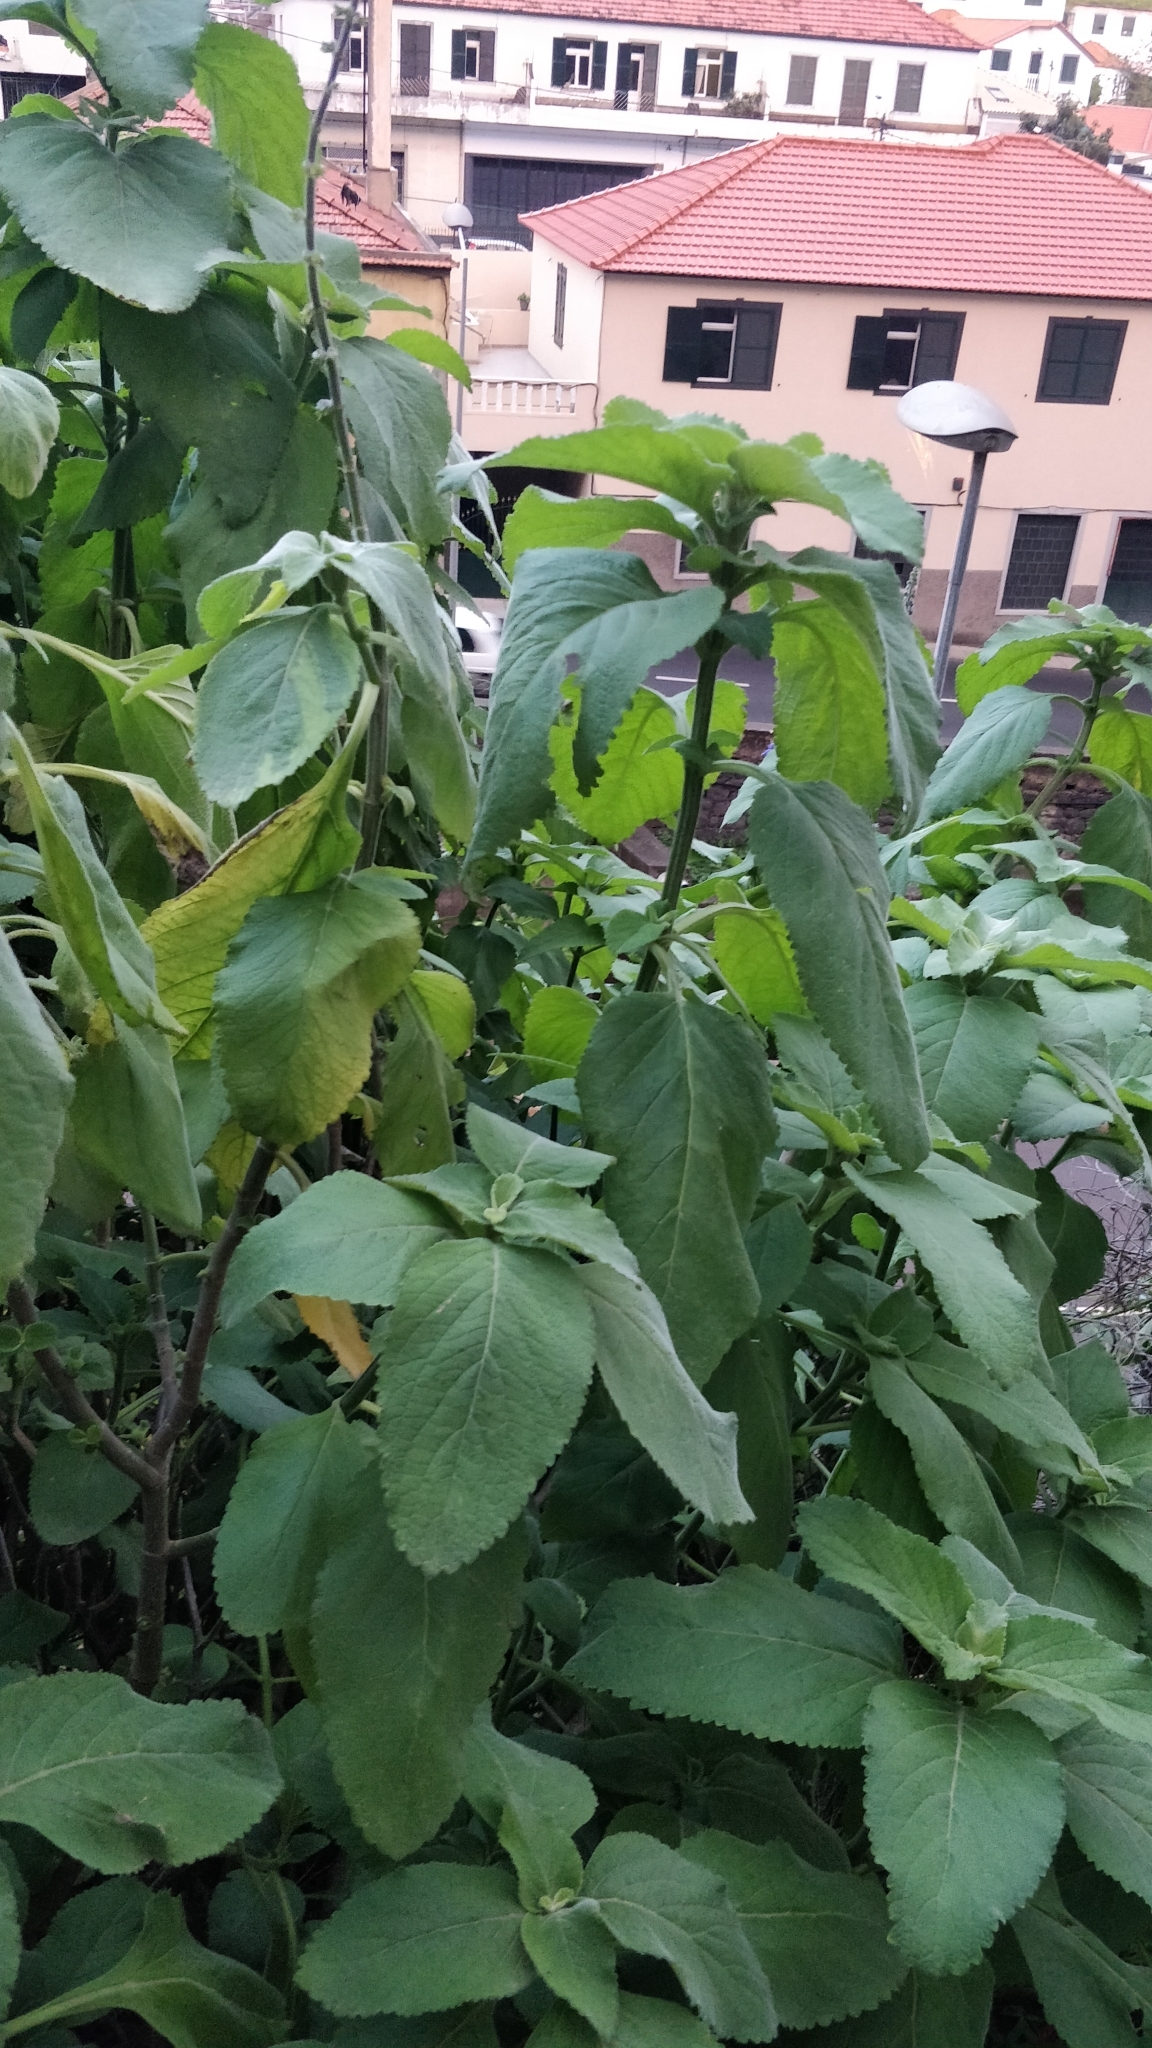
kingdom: Plantae
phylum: Tracheophyta
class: Magnoliopsida
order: Lamiales
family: Lamiaceae
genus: Coleus
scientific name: Coleus barbatus
